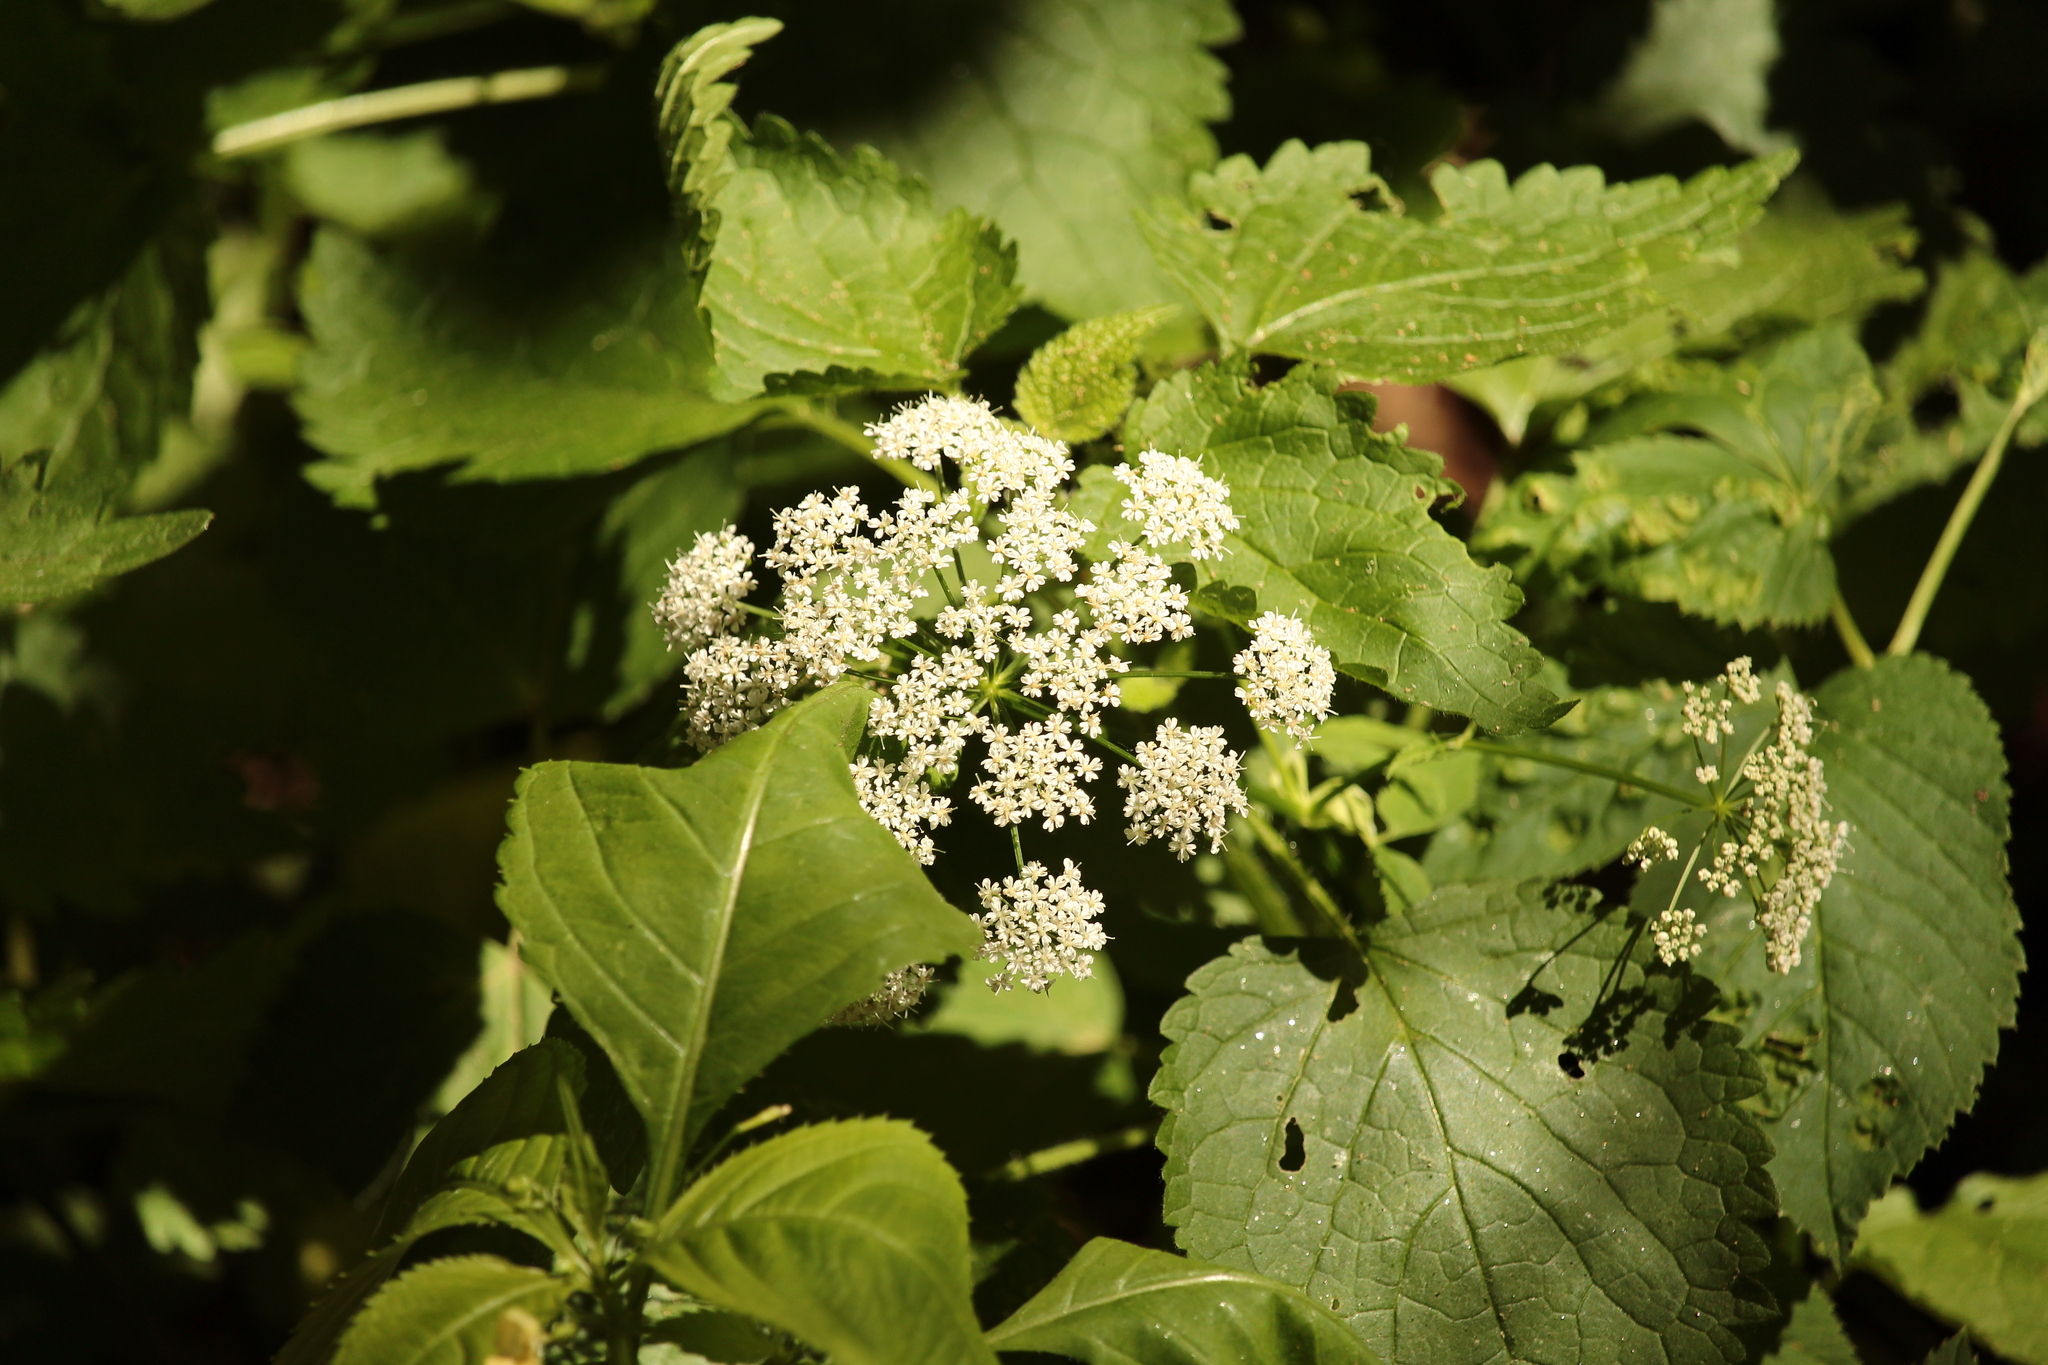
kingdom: Plantae
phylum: Tracheophyta
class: Magnoliopsida
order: Apiales
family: Apiaceae
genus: Aegopodium
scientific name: Aegopodium podagraria
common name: Ground-elder
